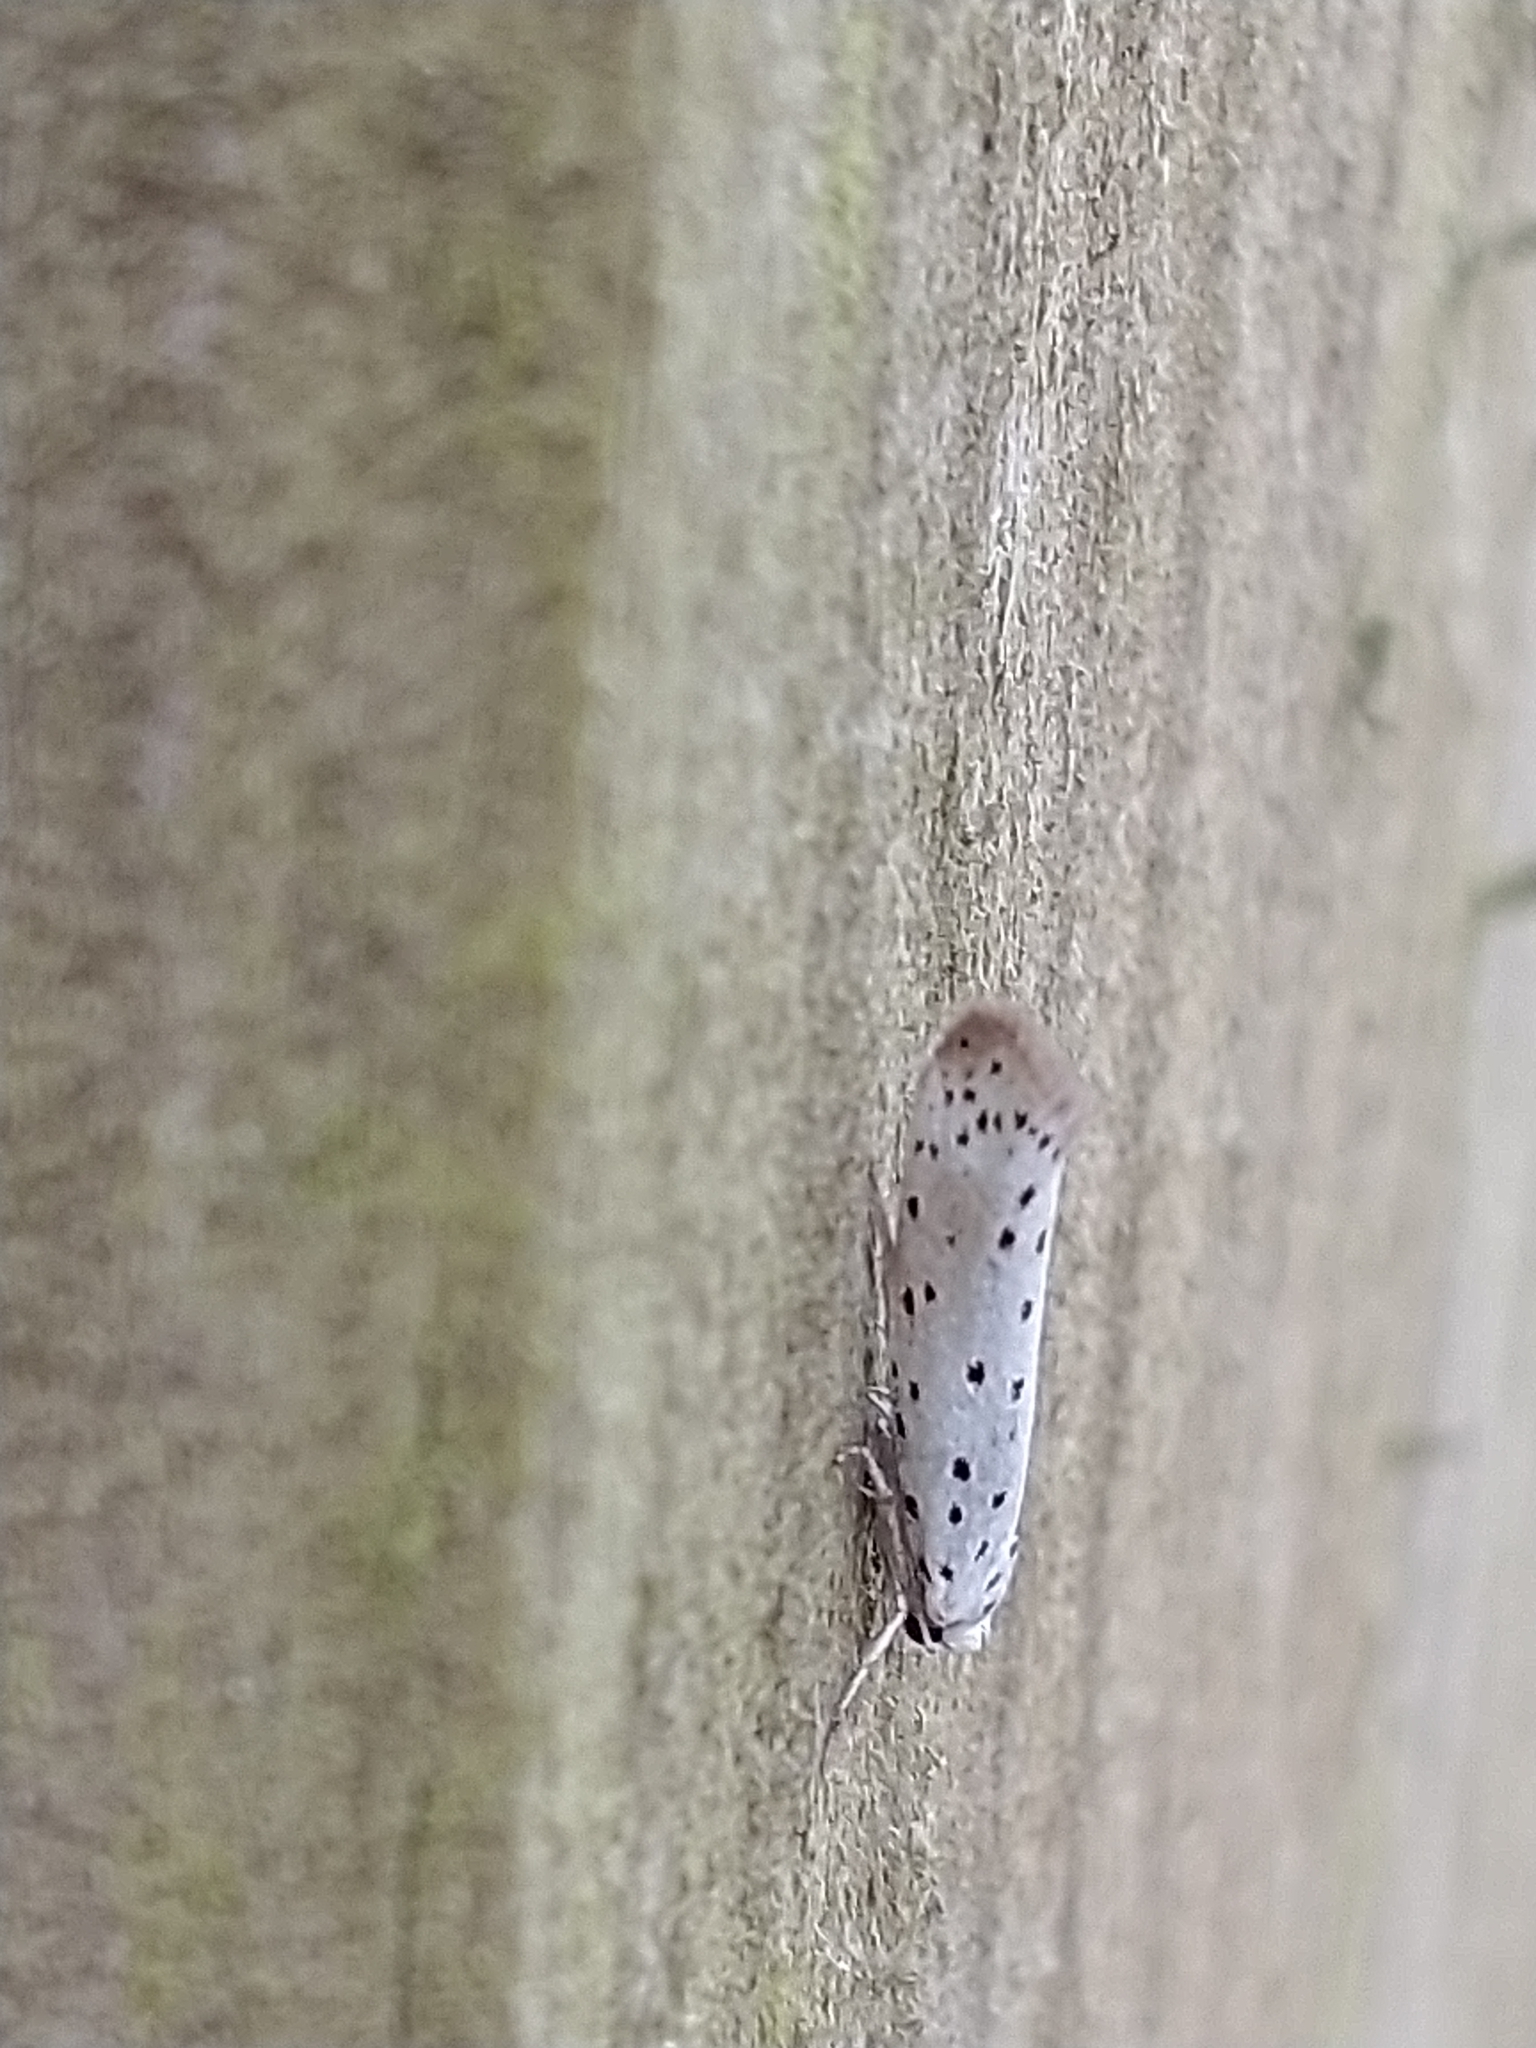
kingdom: Animalia
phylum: Arthropoda
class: Insecta
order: Lepidoptera
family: Yponomeutidae
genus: Yponomeuta
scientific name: Yponomeuta
